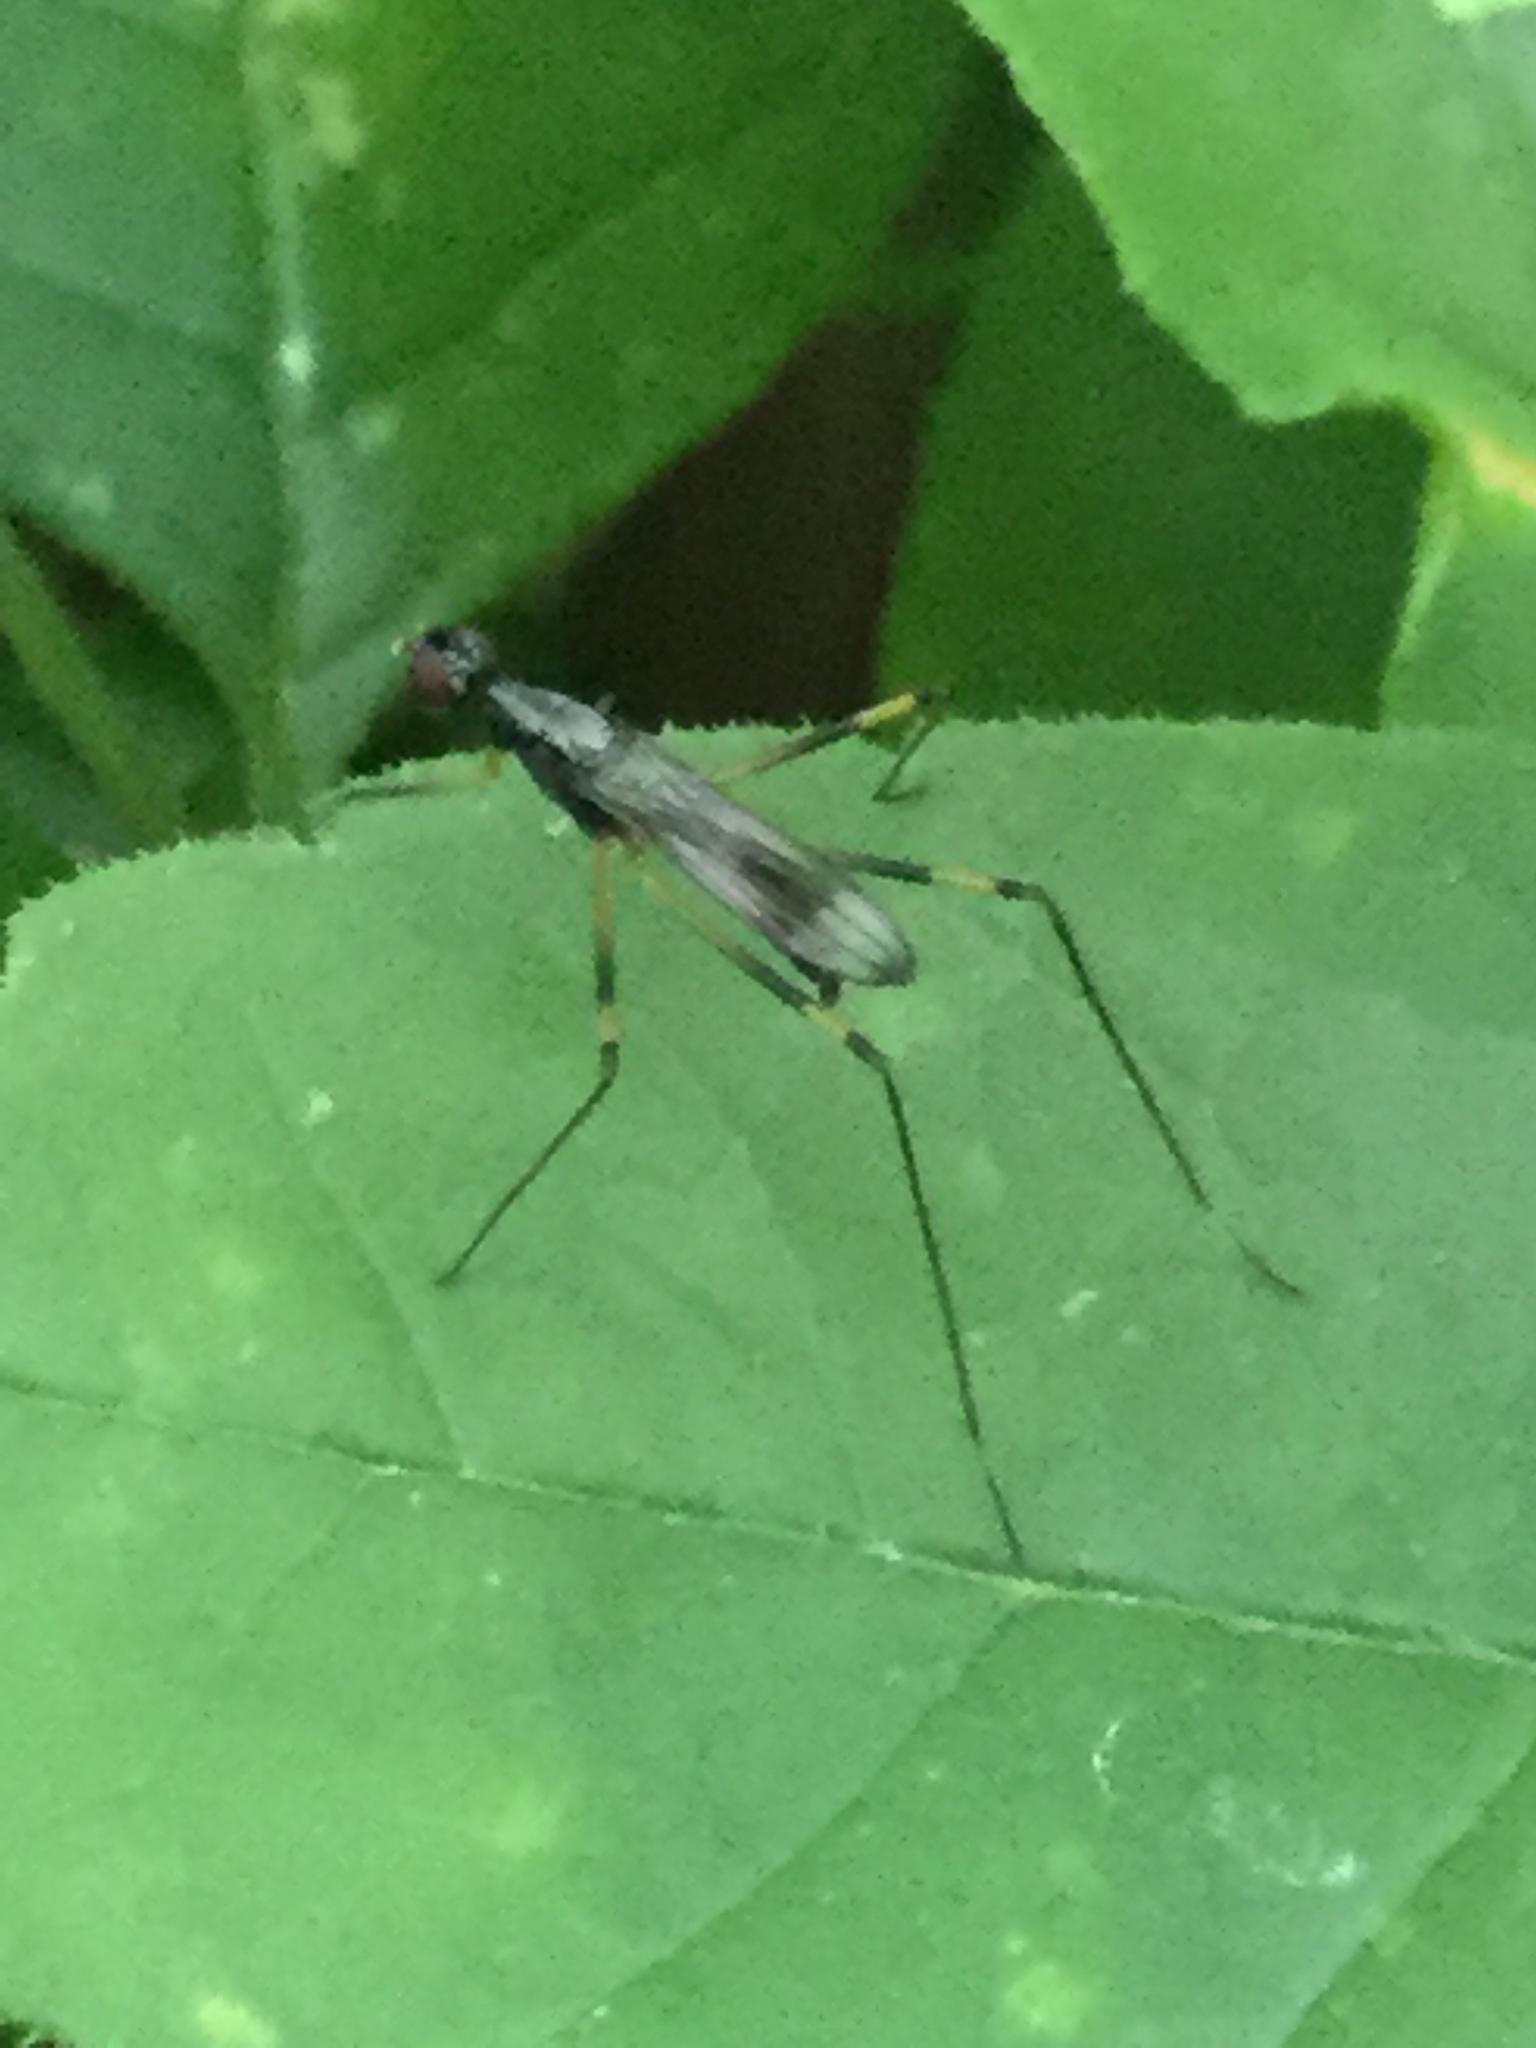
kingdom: Animalia
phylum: Arthropoda
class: Insecta
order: Diptera
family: Micropezidae
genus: Rainieria
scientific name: Rainieria antennaepes
